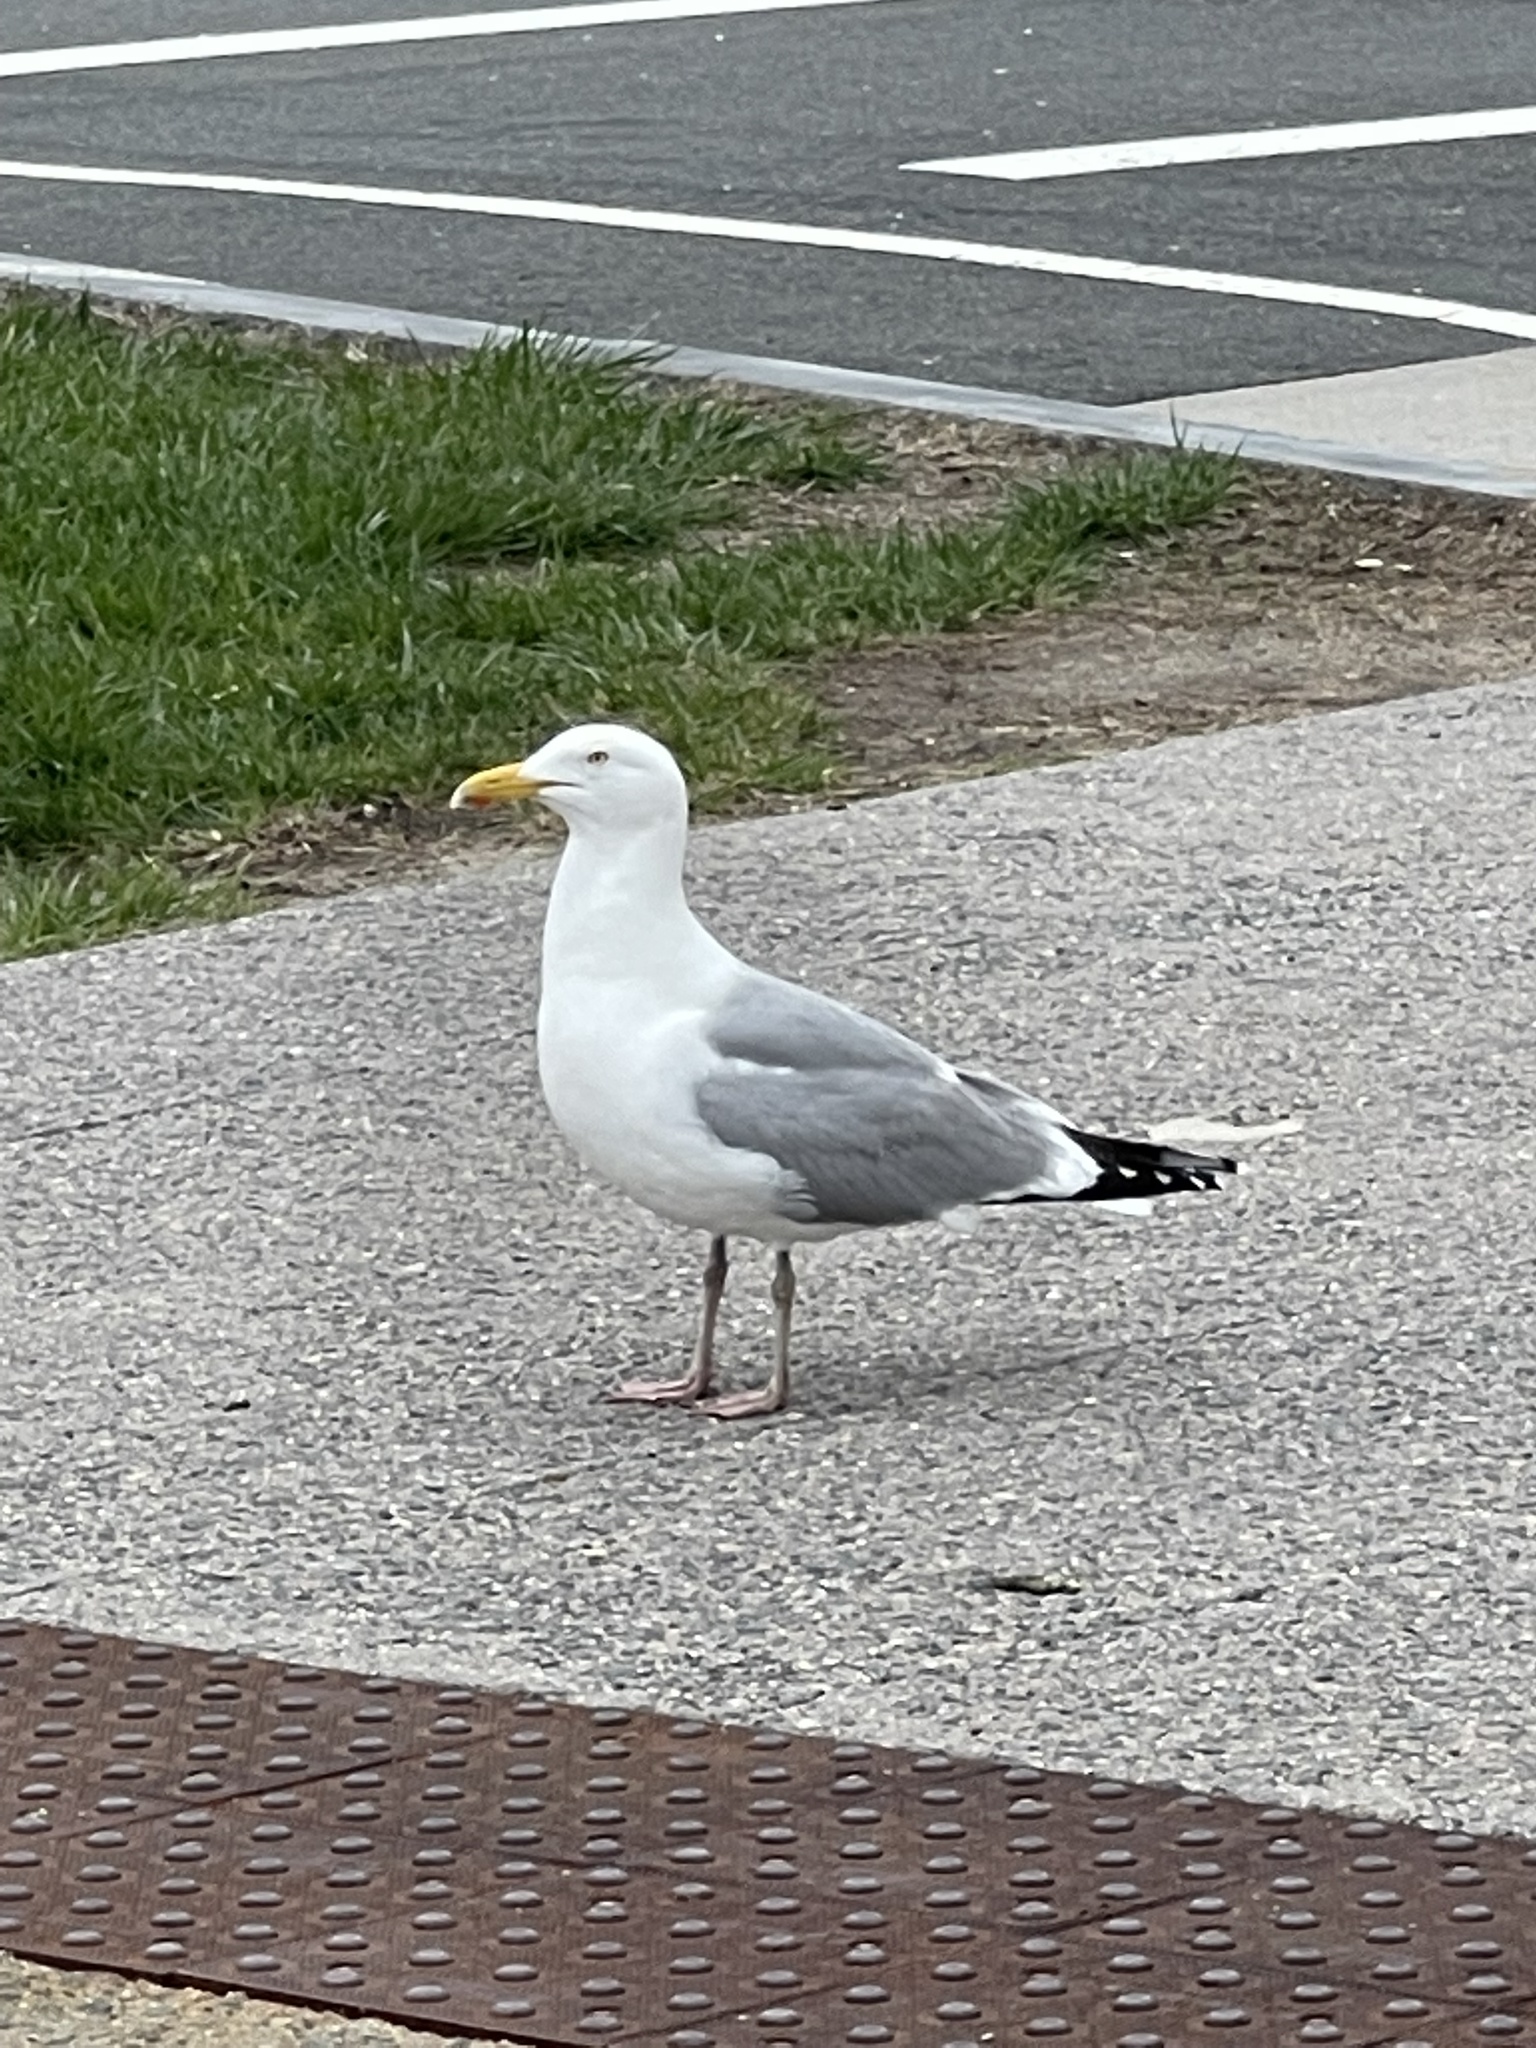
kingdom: Animalia
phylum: Chordata
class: Aves
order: Charadriiformes
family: Laridae
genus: Larus
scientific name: Larus argentatus
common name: Herring gull
